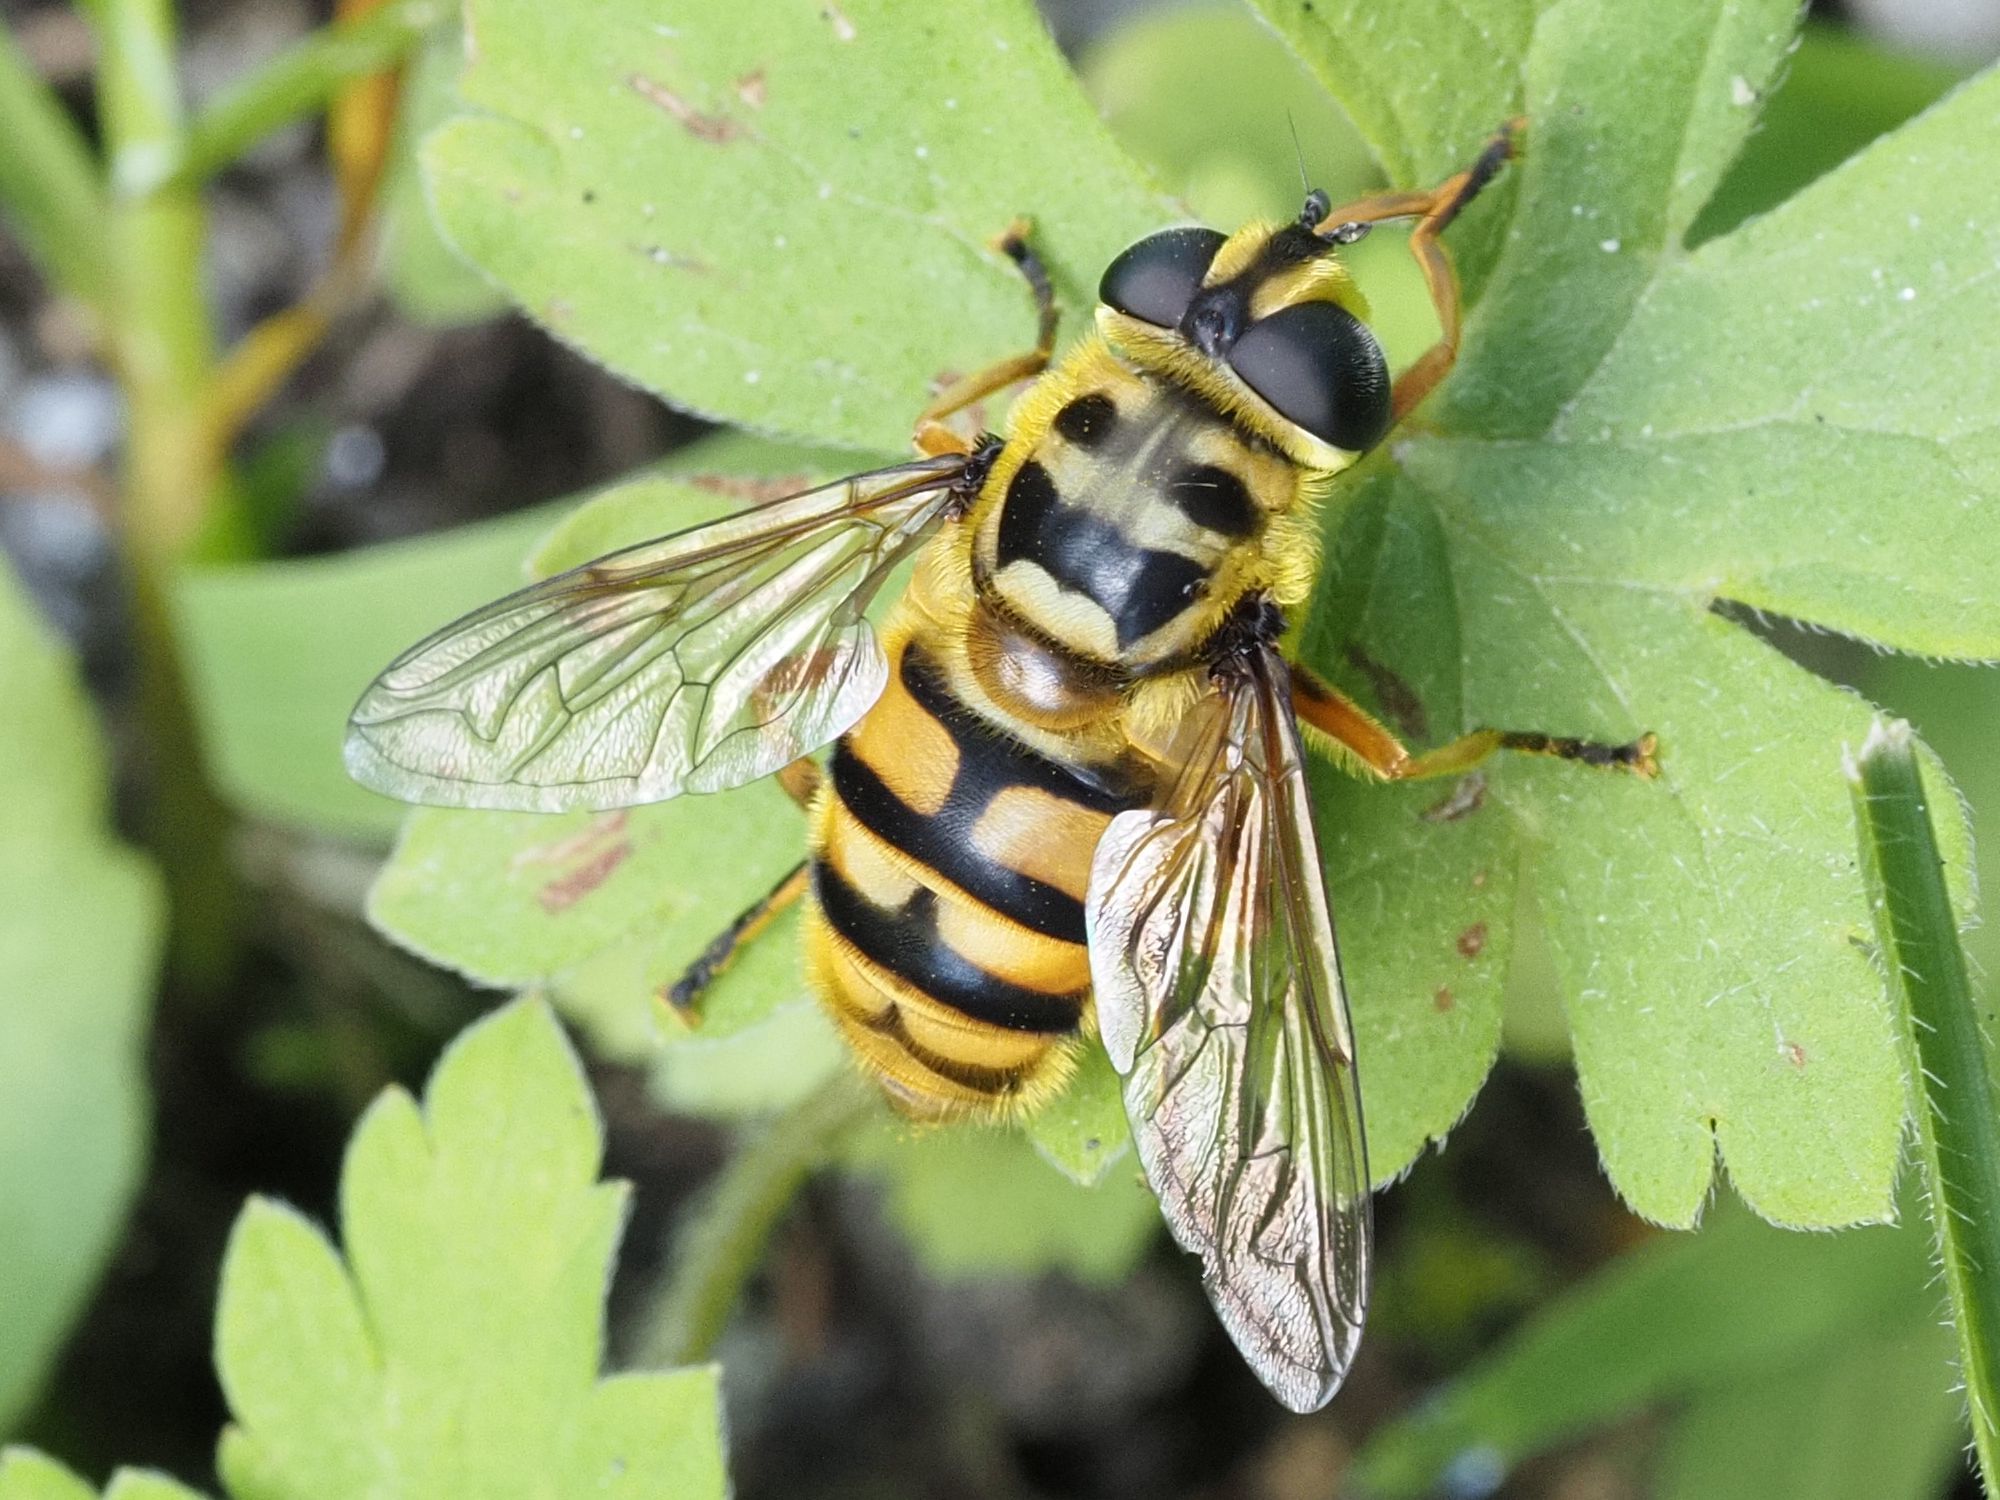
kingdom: Animalia
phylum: Arthropoda
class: Insecta
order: Diptera
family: Syrphidae
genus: Myathropa
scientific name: Myathropa florea
